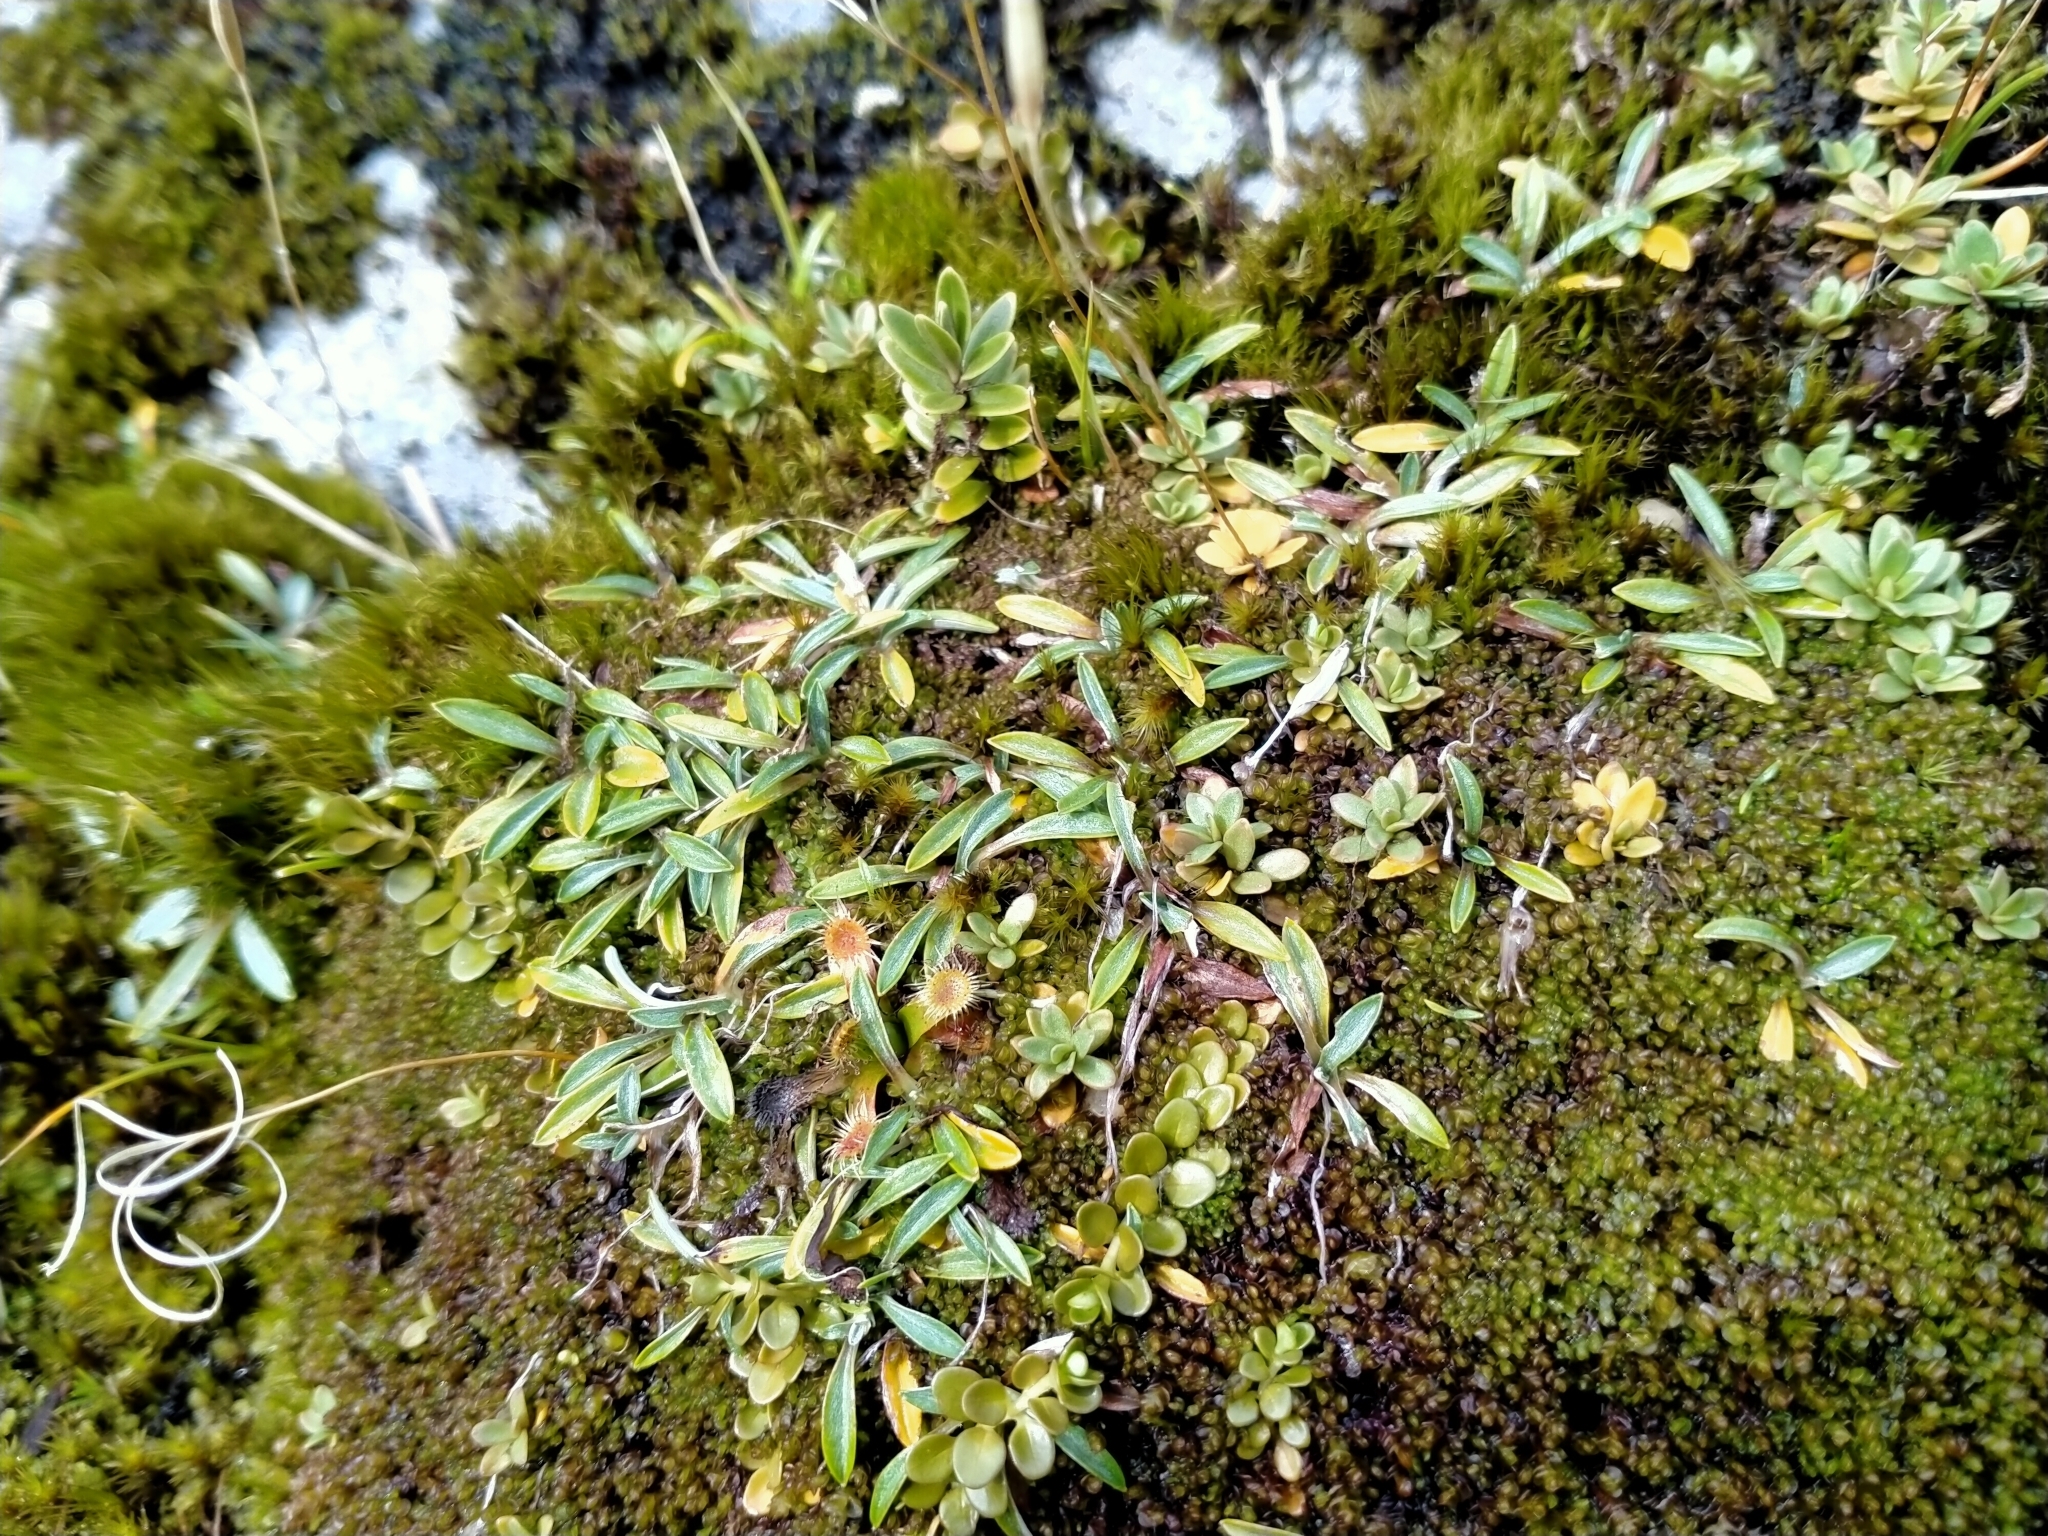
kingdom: Plantae
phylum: Tracheophyta
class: Magnoliopsida
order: Asterales
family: Asteraceae
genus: Euchiton
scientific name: Euchiton polylepis
